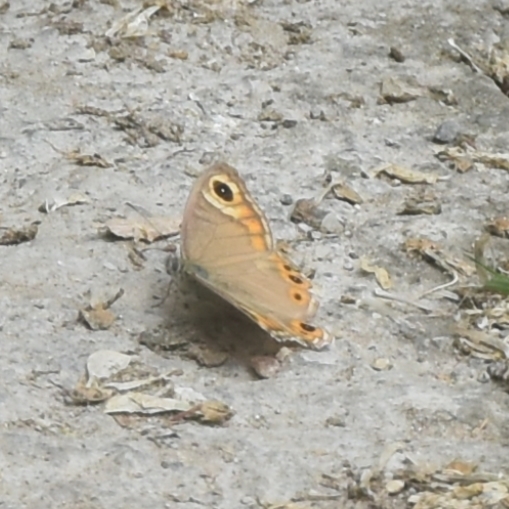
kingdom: Animalia
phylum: Arthropoda
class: Insecta
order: Lepidoptera
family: Nymphalidae
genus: Pararge
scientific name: Pararge Lasiommata schakra
